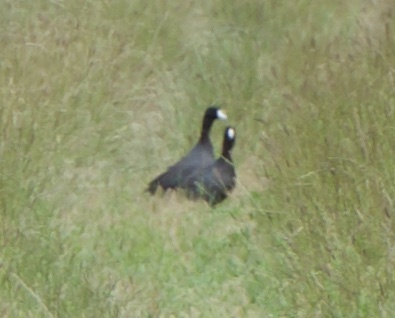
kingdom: Animalia
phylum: Chordata
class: Aves
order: Gruiformes
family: Rallidae
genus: Fulica
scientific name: Fulica americana
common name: American coot
